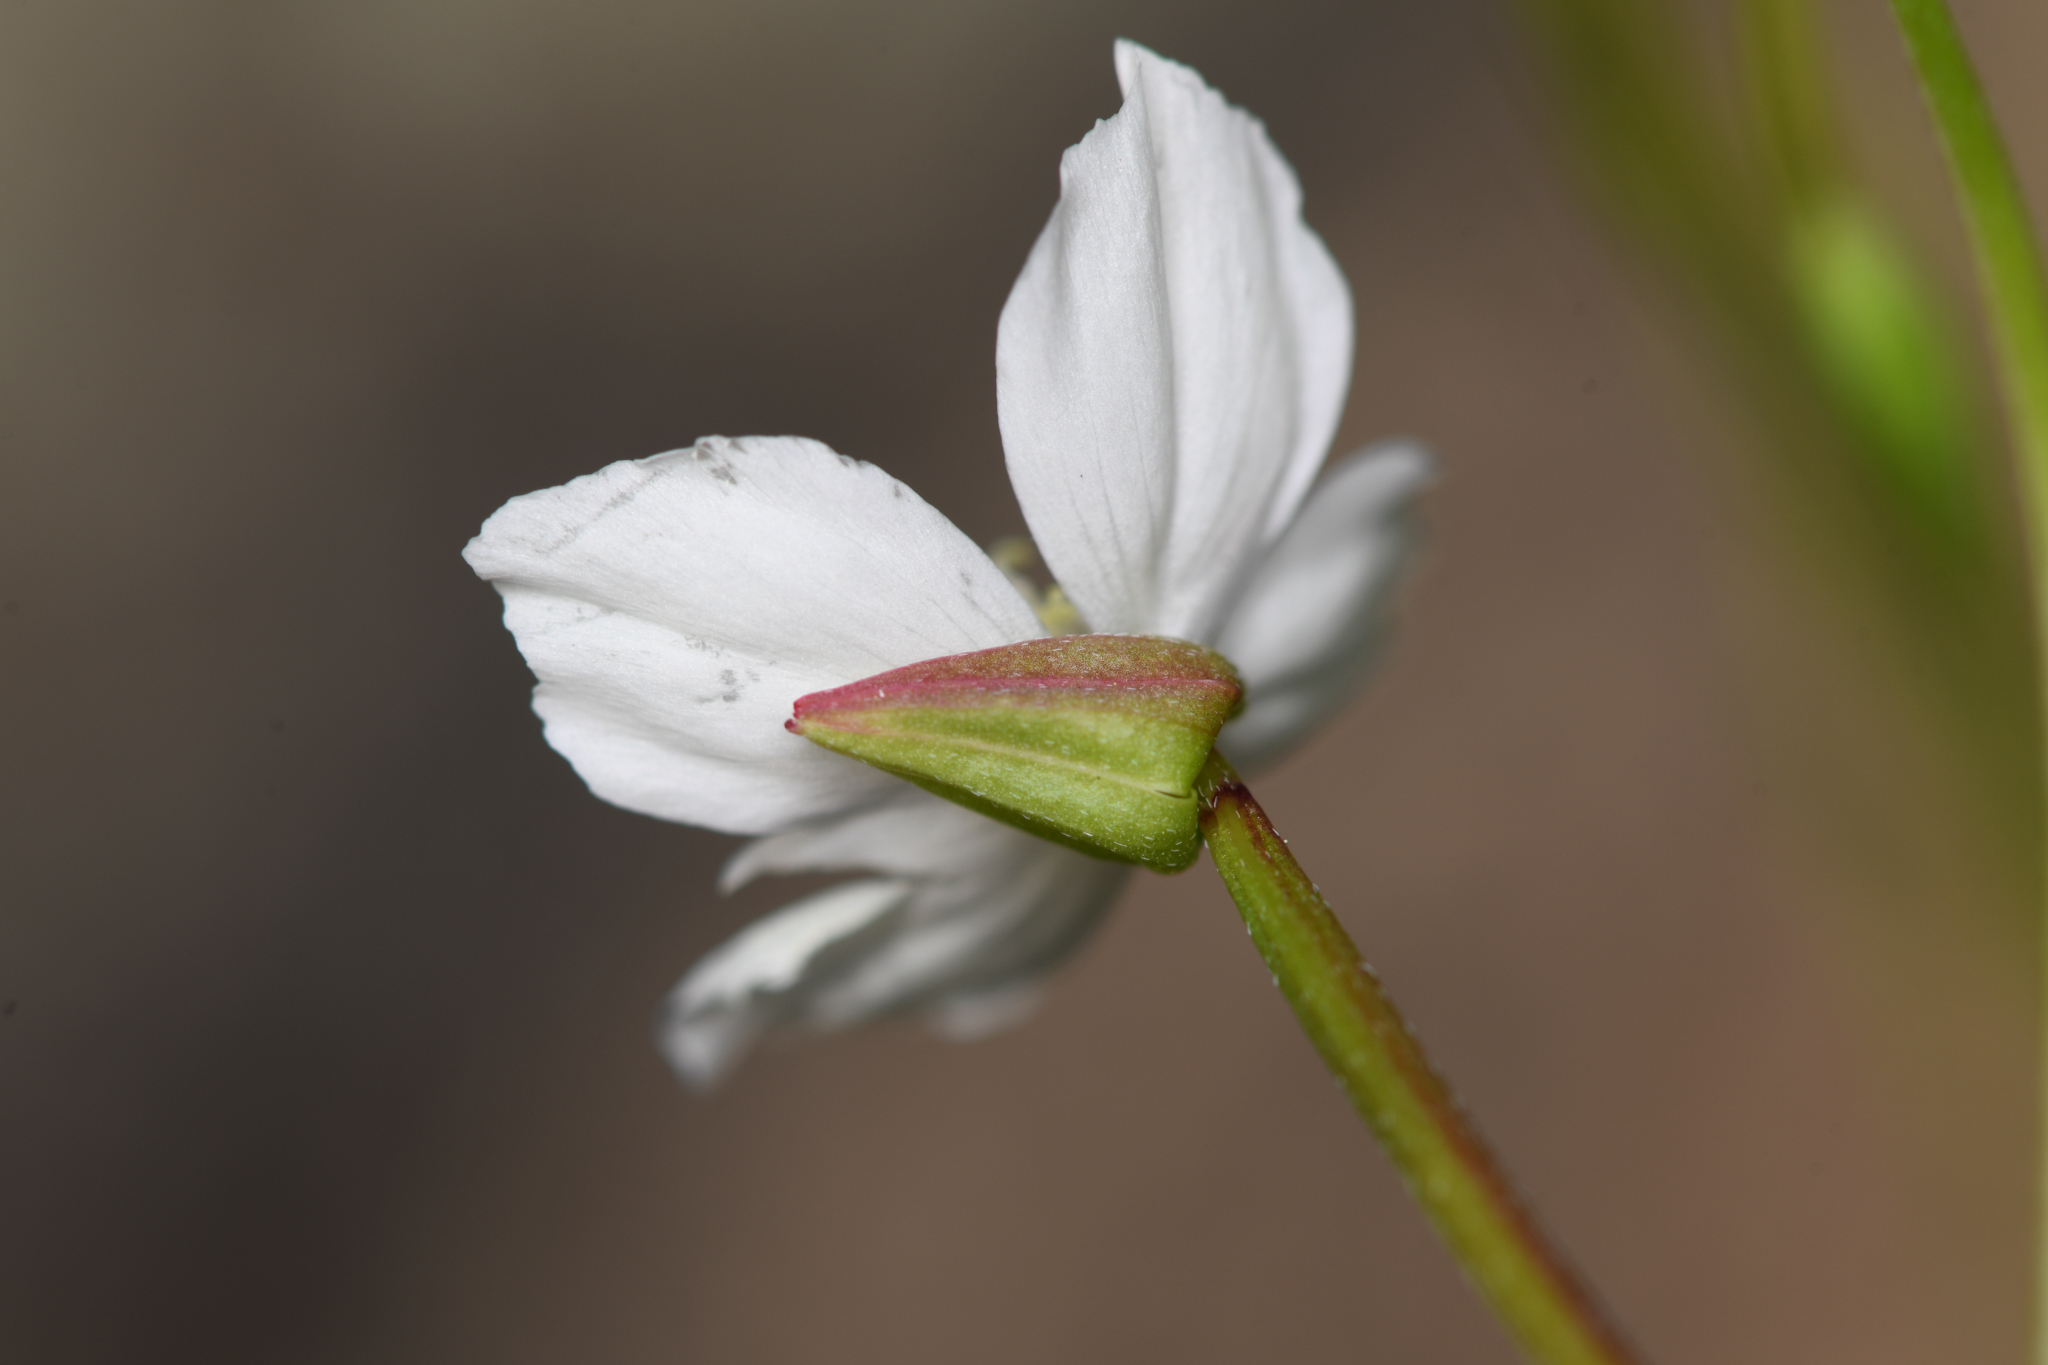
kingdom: Plantae
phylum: Tracheophyta
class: Magnoliopsida
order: Myrtales
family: Onagraceae
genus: Clarkia
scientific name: Clarkia epilobioides
